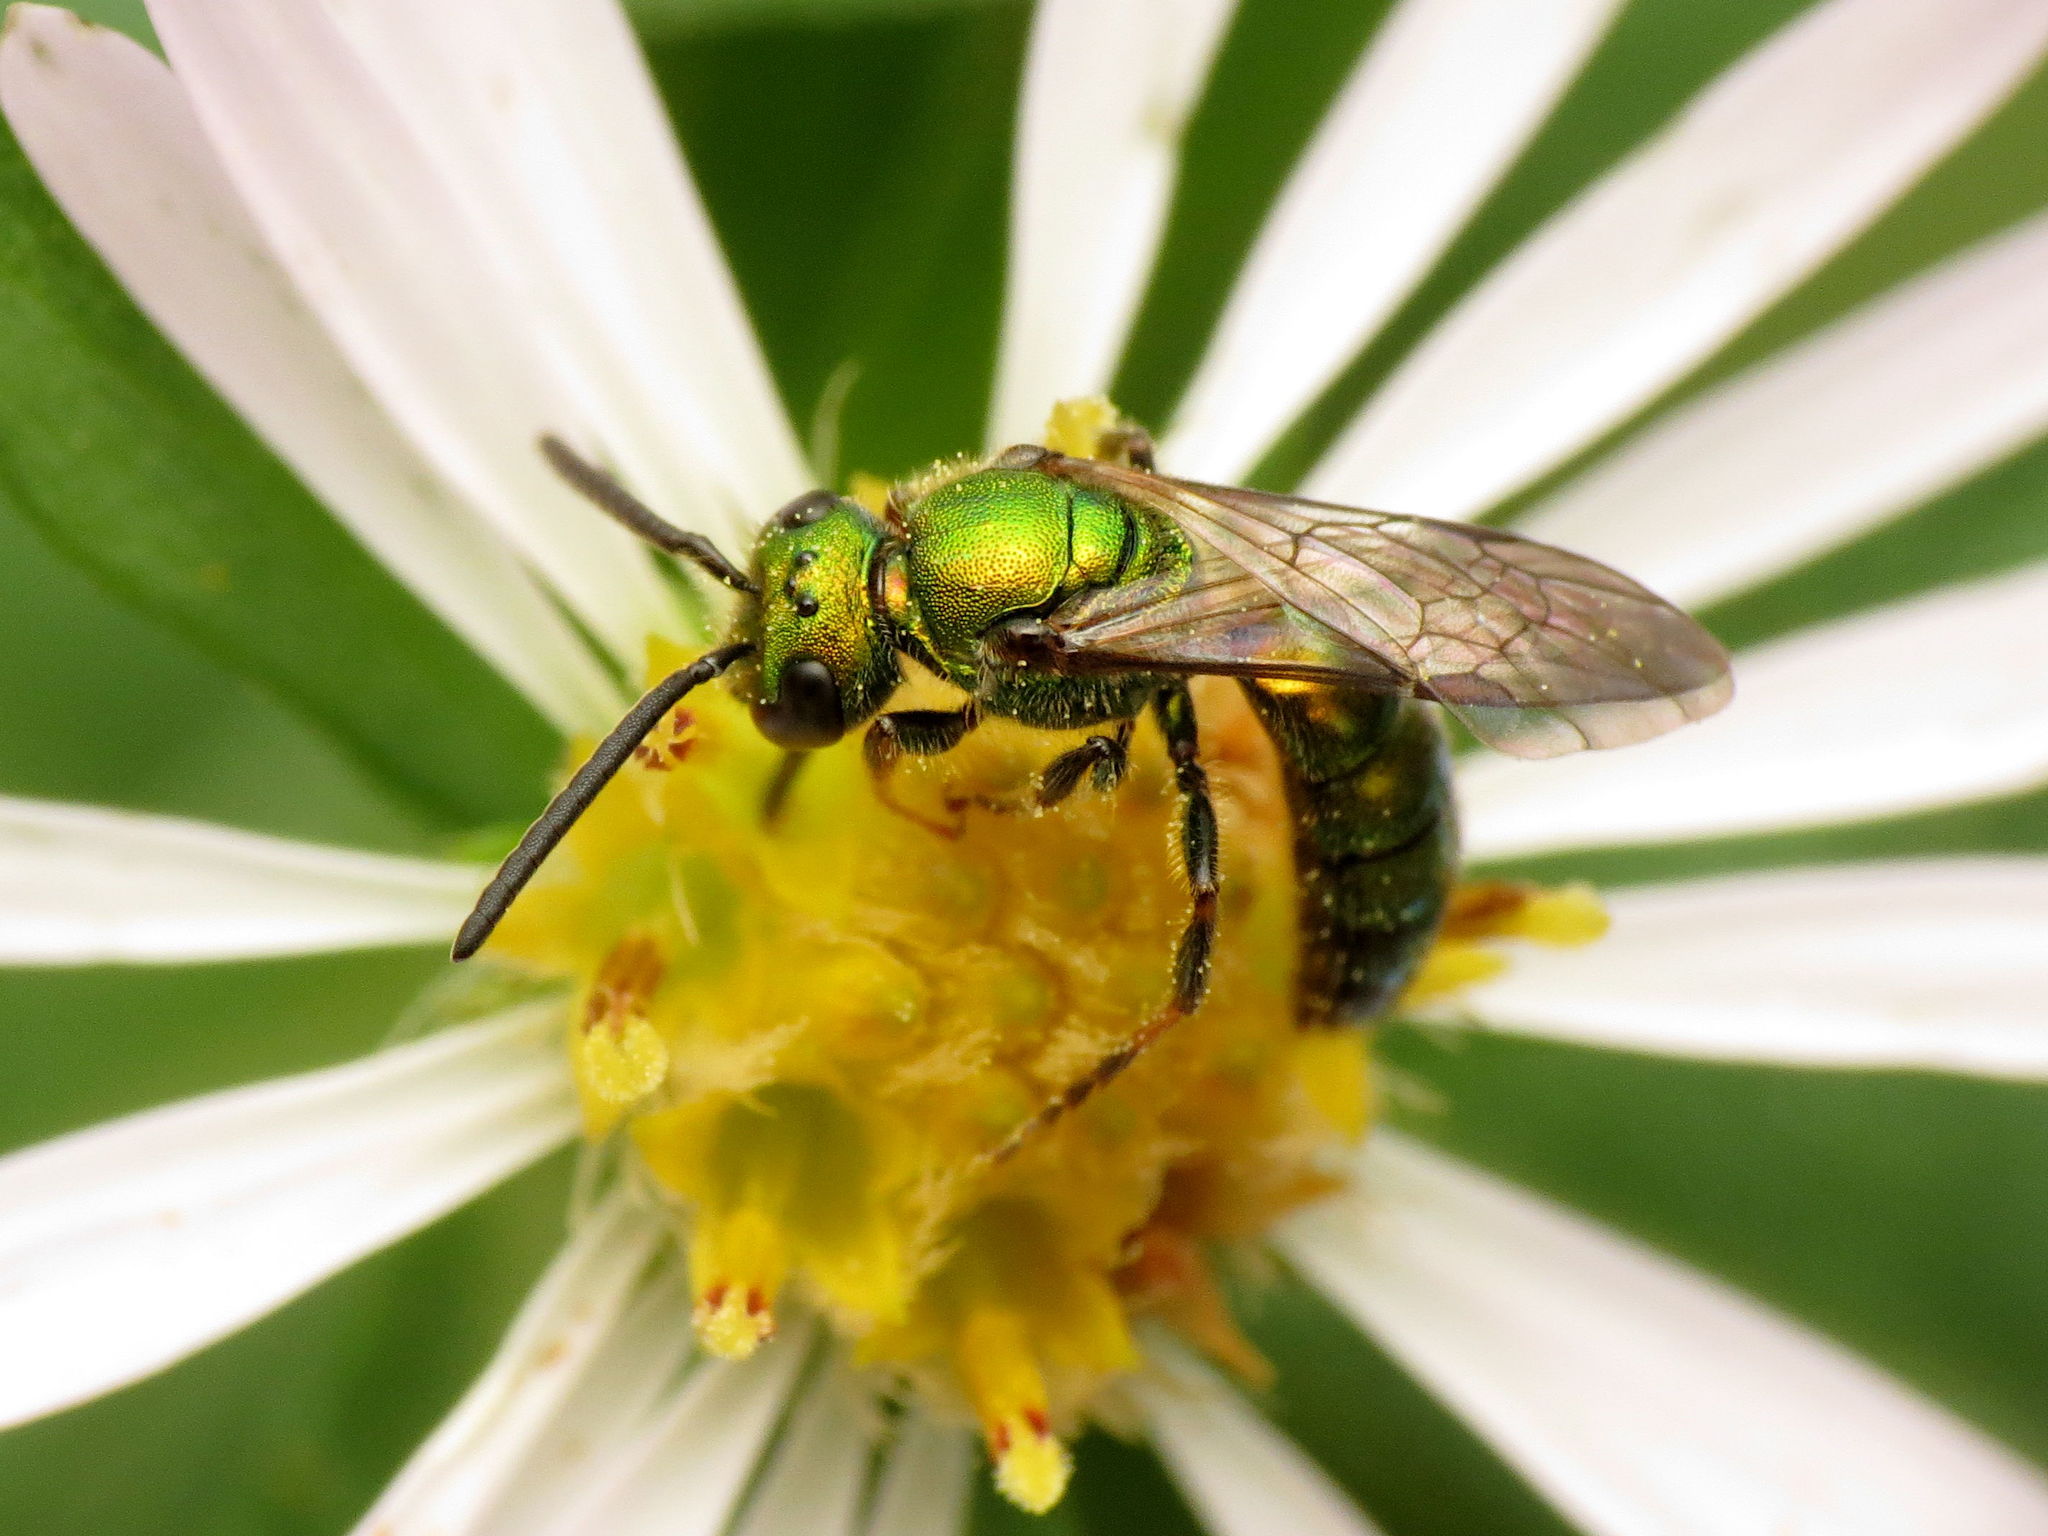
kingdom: Animalia
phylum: Arthropoda
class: Insecta
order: Hymenoptera
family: Halictidae
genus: Augochlora
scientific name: Augochlora pura
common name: Pure green sweat bee
